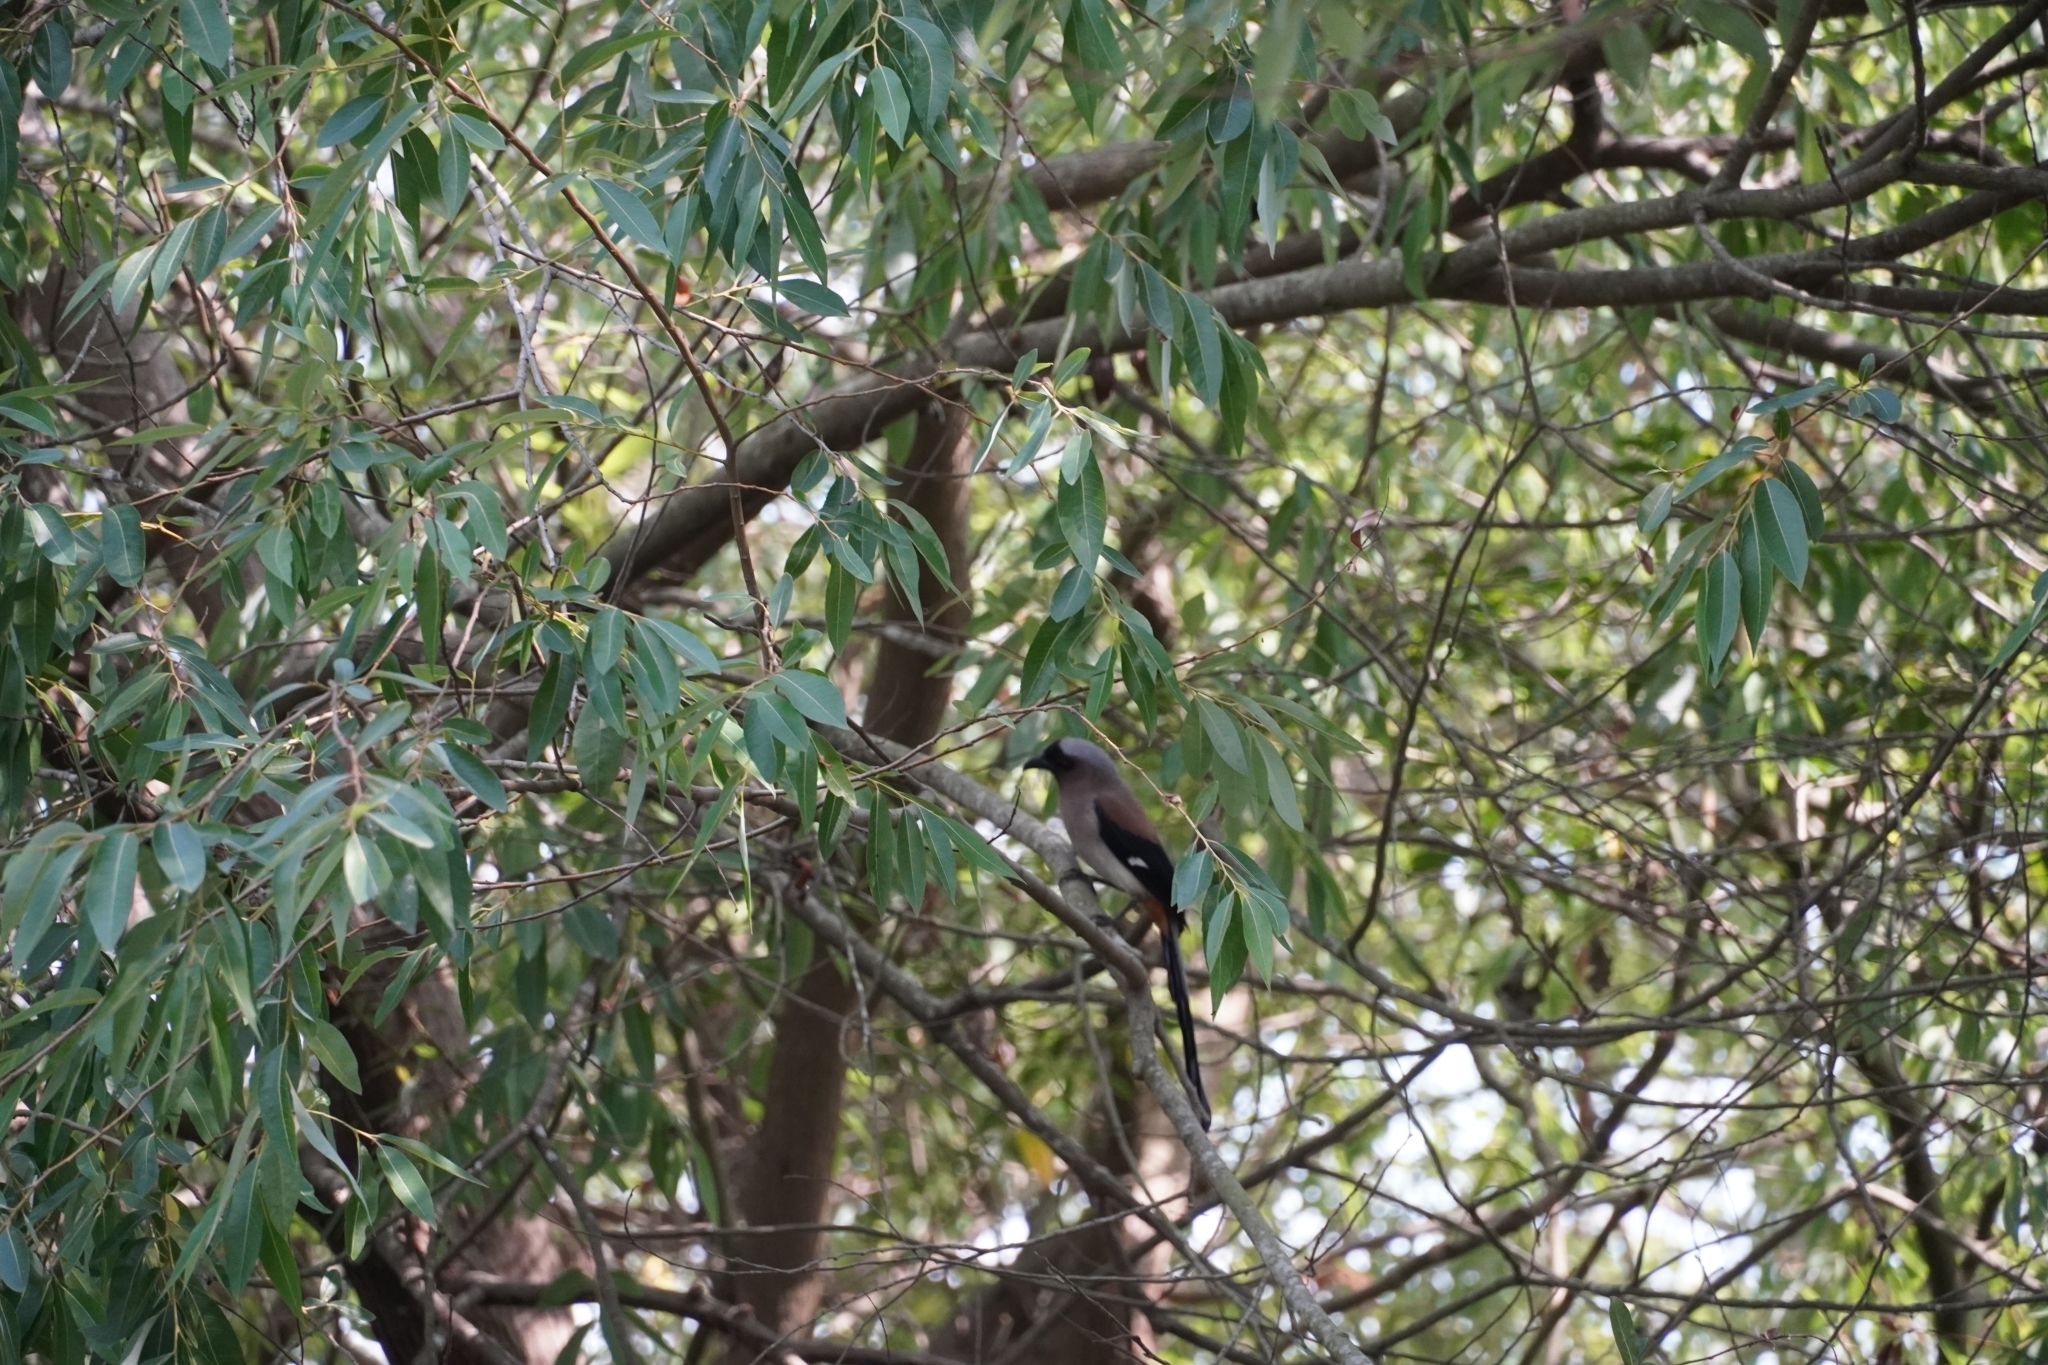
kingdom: Animalia
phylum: Chordata
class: Aves
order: Passeriformes
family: Corvidae
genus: Dendrocitta
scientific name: Dendrocitta formosae
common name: Grey treepie
